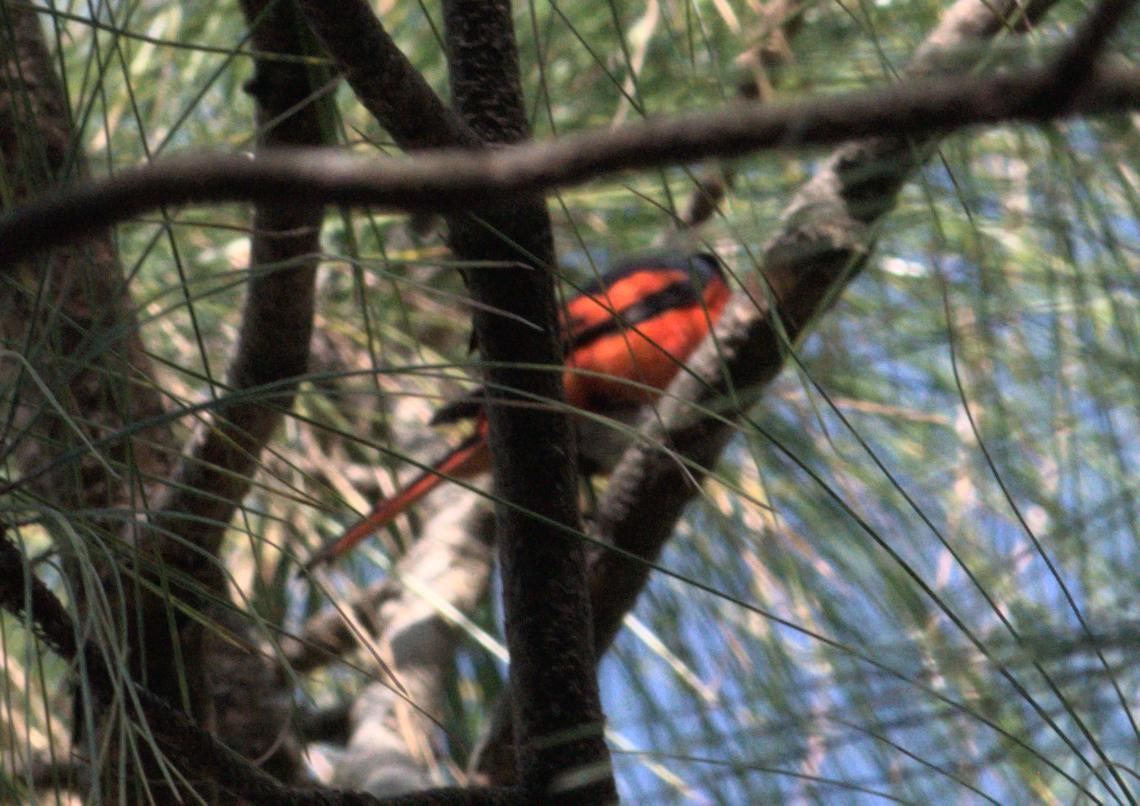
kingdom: Animalia
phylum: Chordata
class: Aves
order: Passeriformes
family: Campephagidae
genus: Pericrocotus
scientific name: Pericrocotus ethologus
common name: Long-tailed minivet
